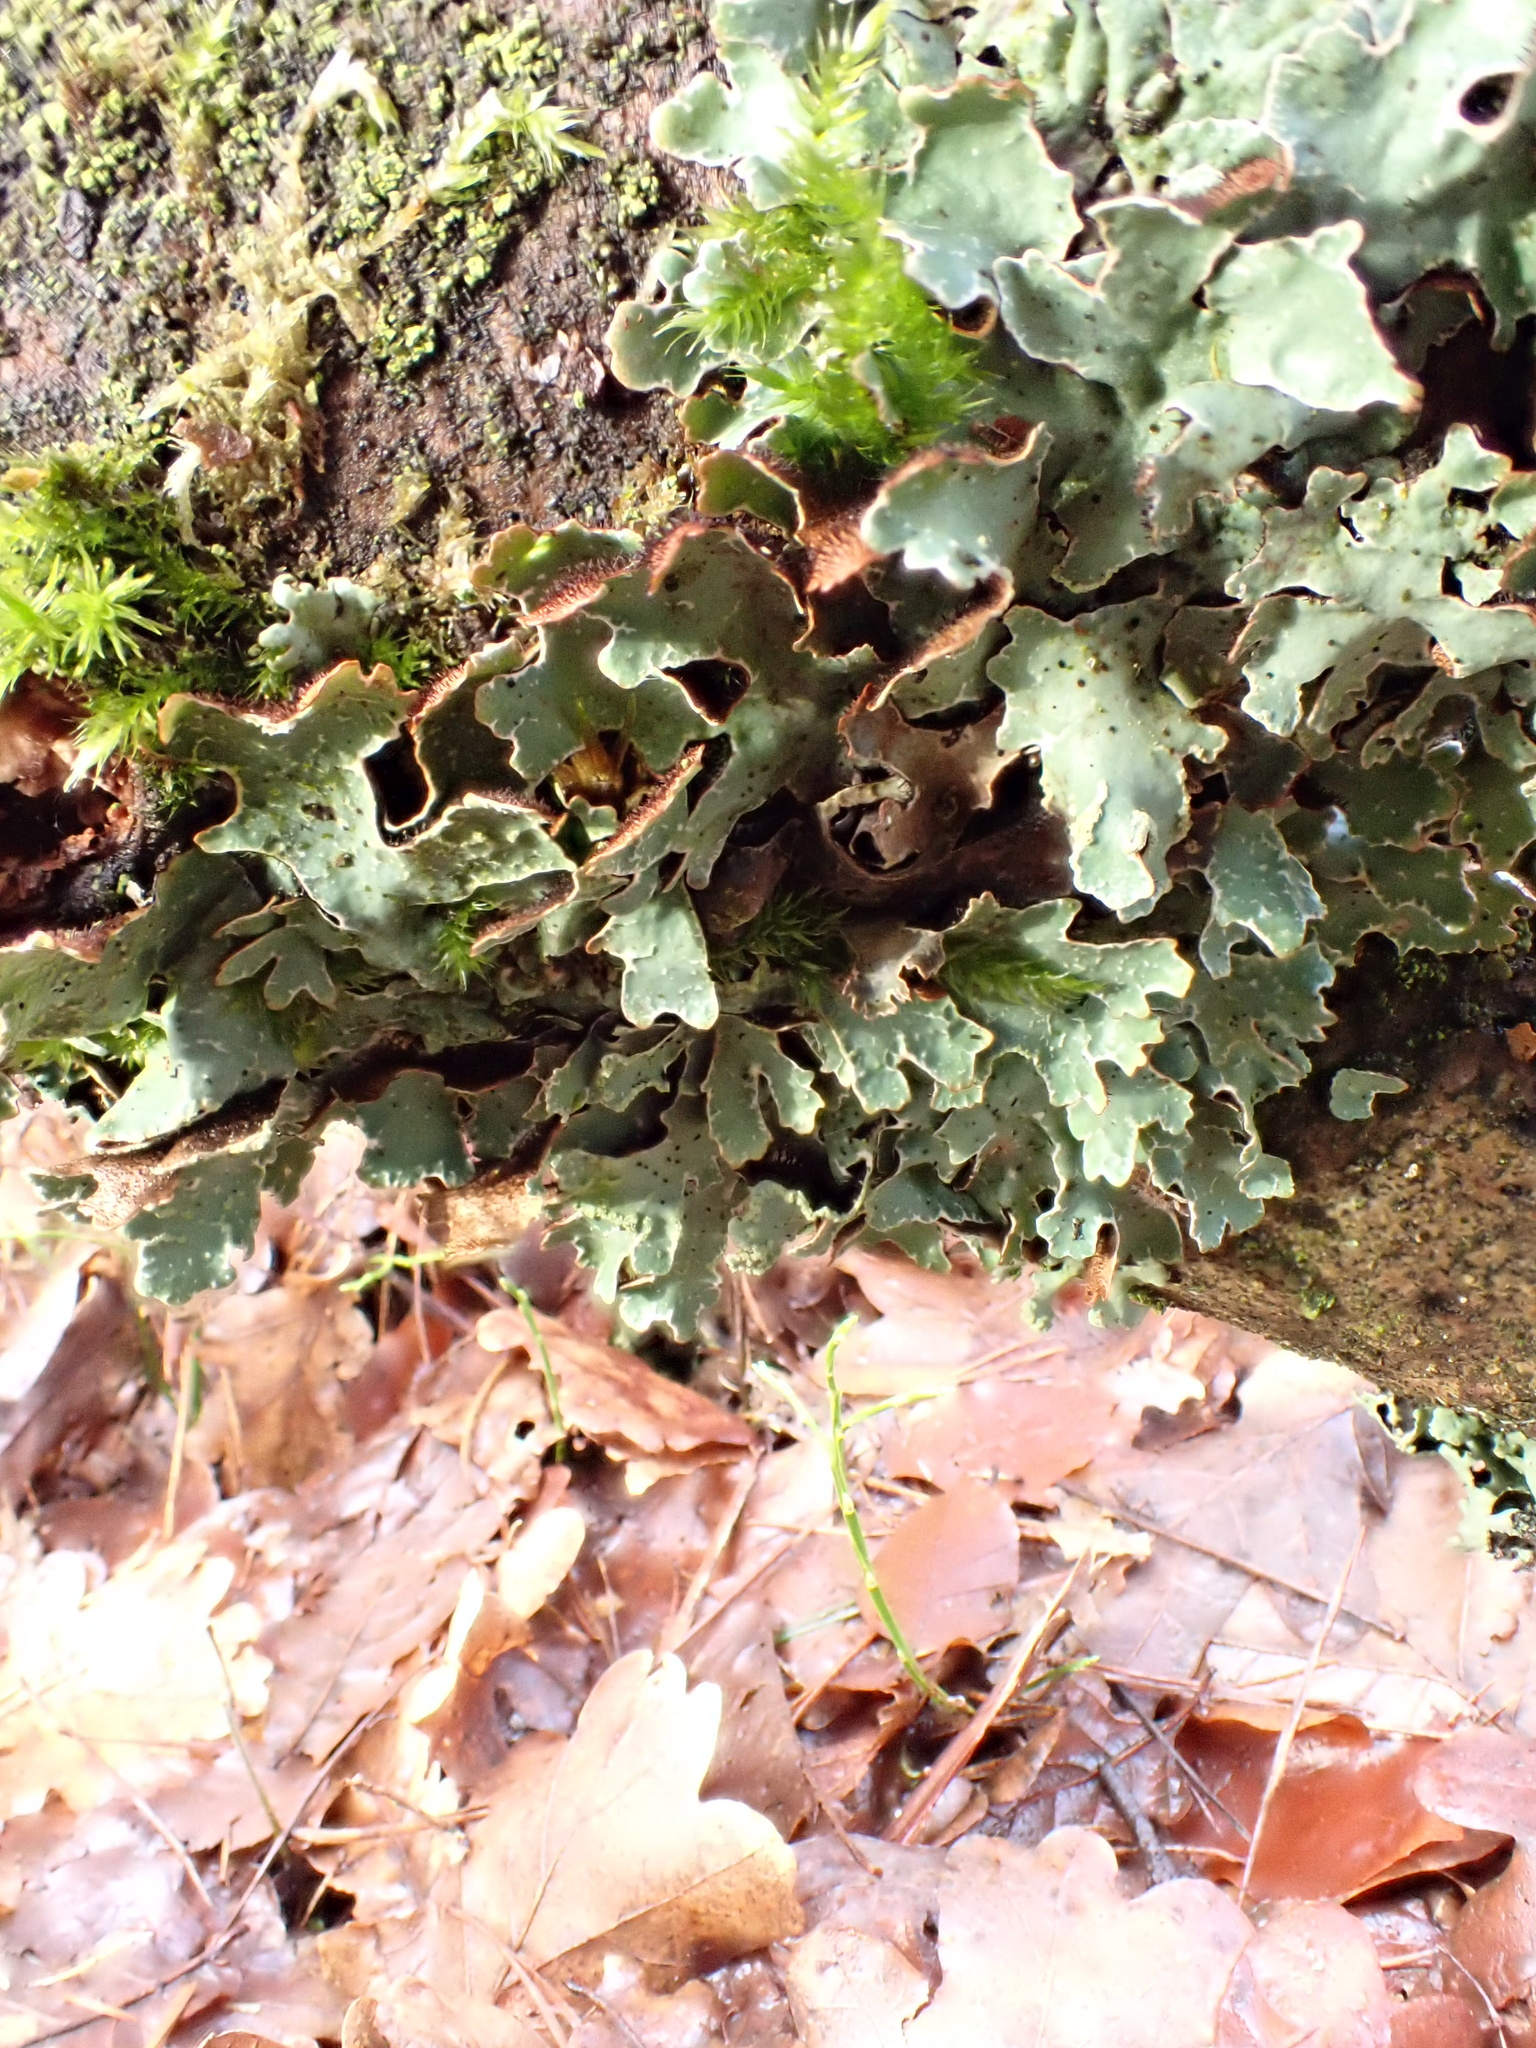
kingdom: Fungi
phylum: Ascomycota
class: Lecanoromycetes
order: Lecanorales
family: Parmeliaceae
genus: Parmelia
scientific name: Parmelia sulcata
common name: Netted shield lichen
